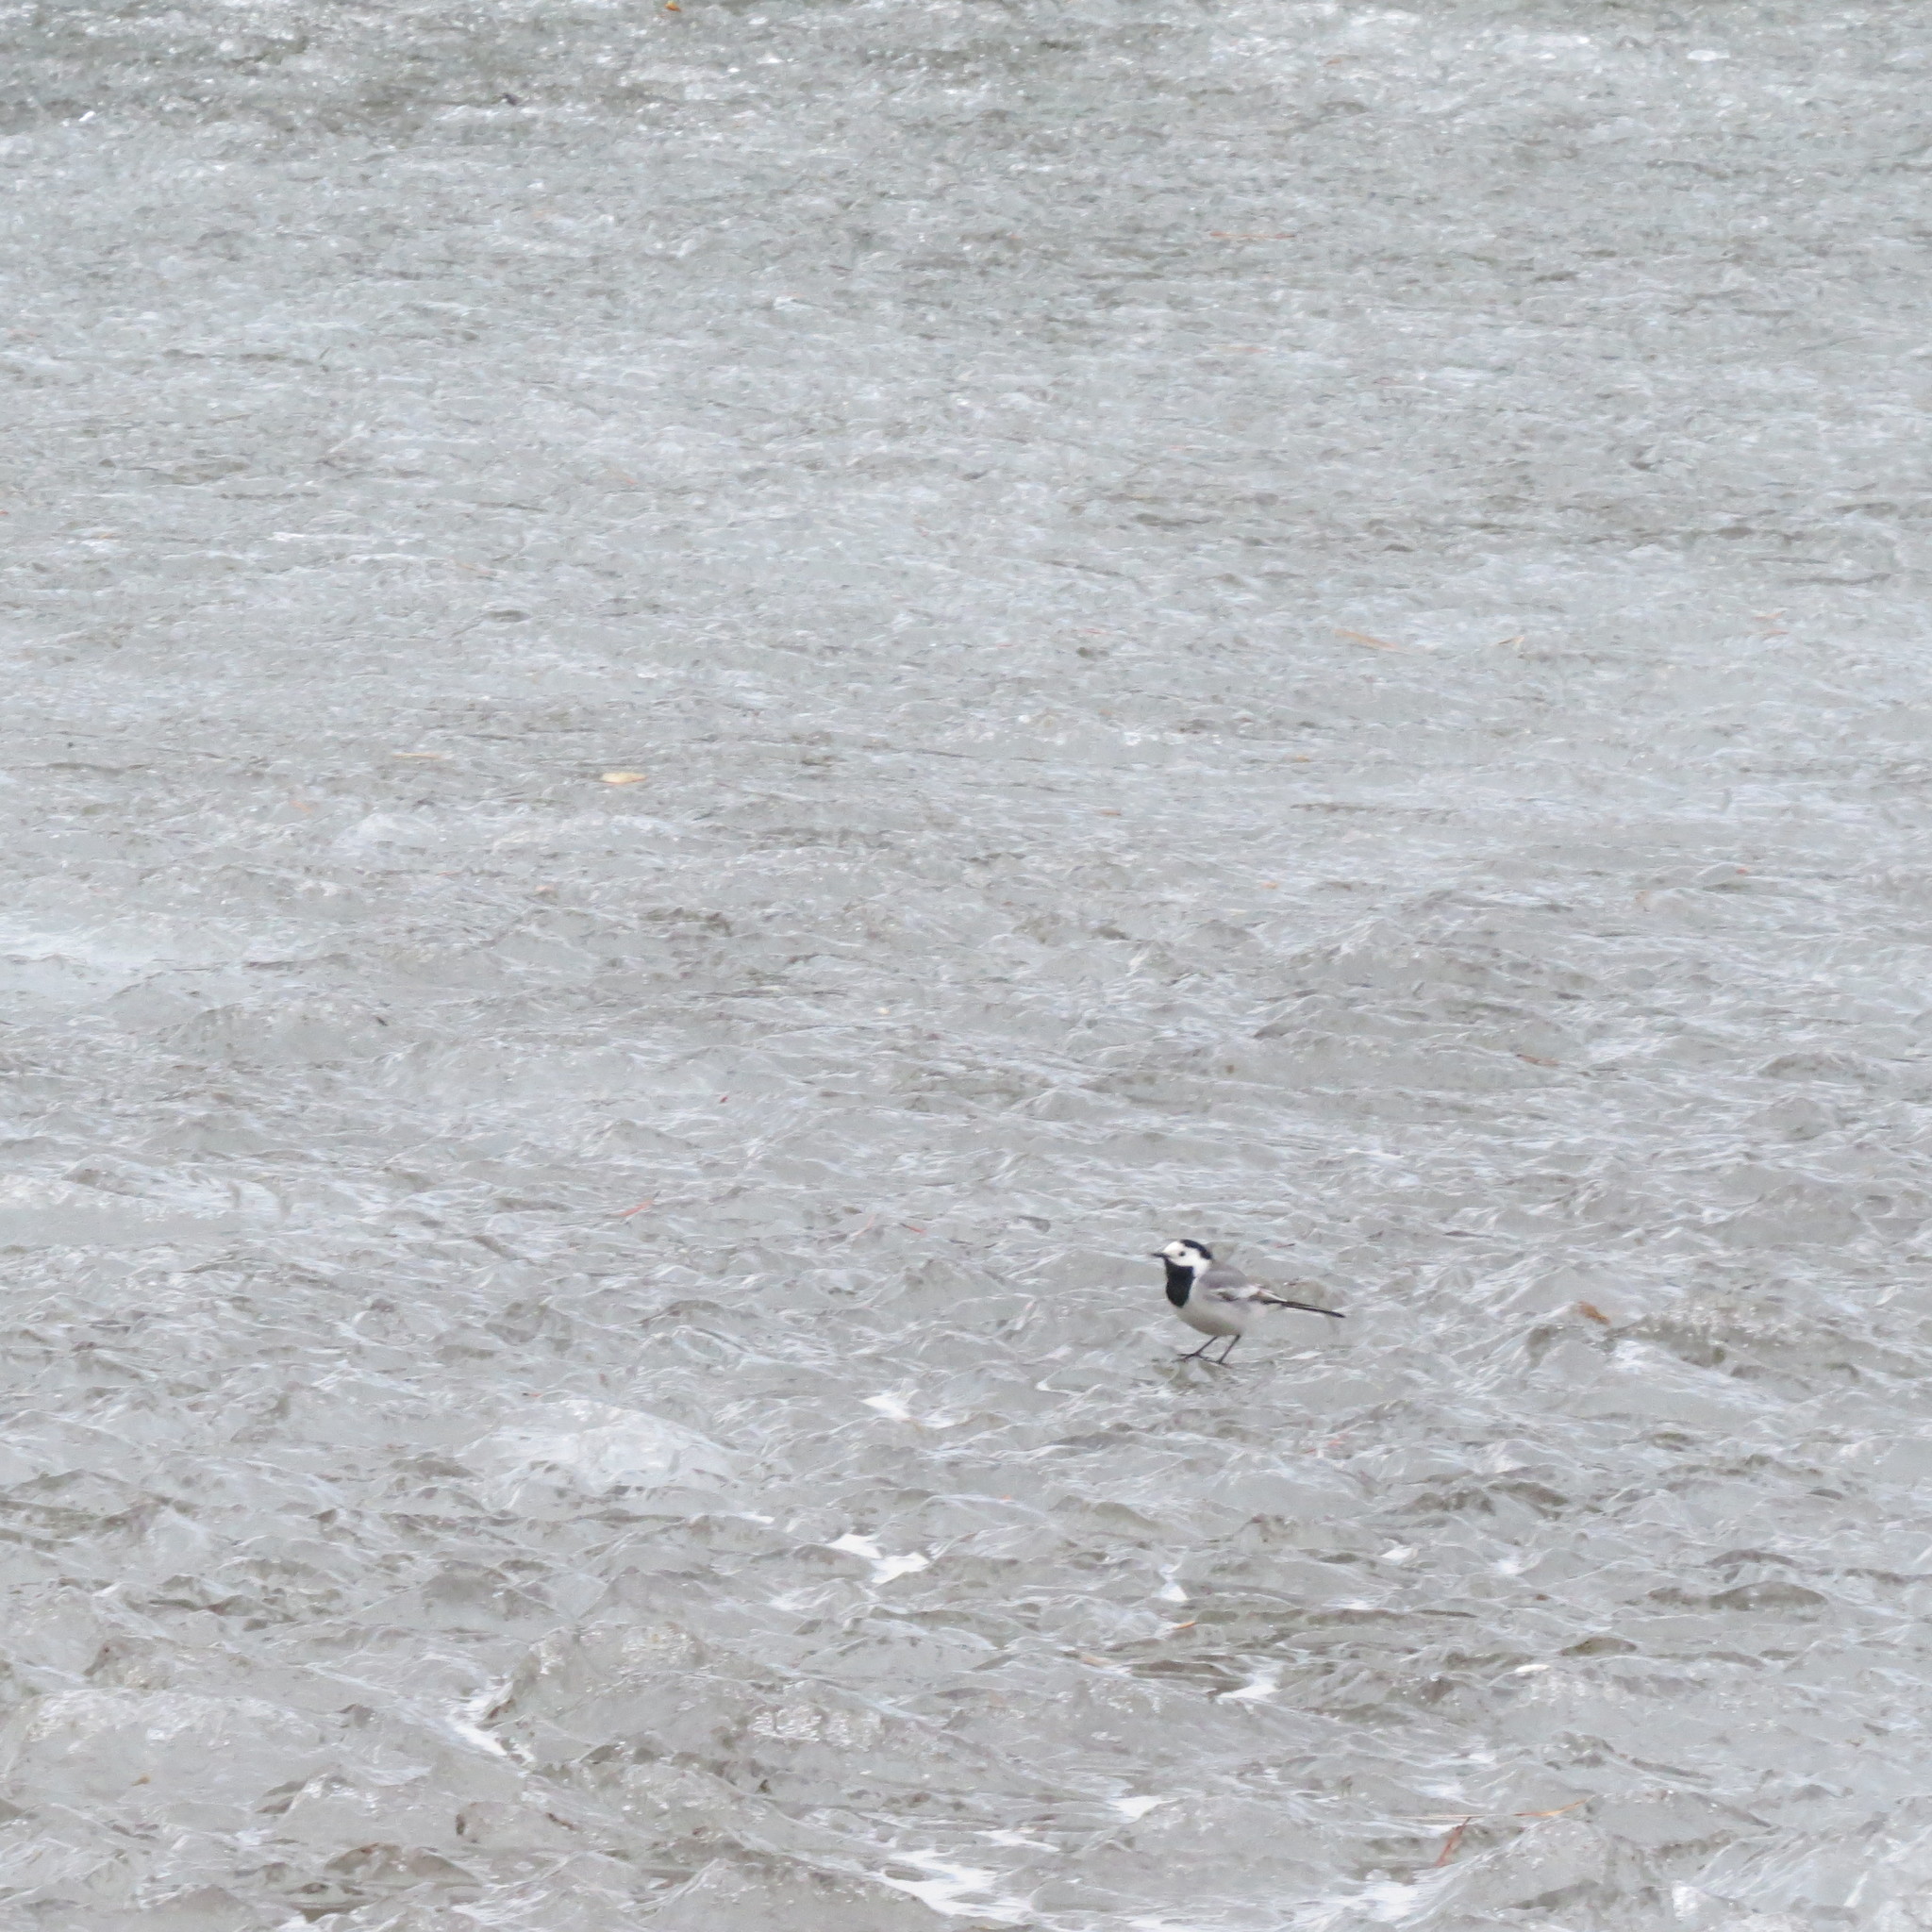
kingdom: Animalia
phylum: Chordata
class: Aves
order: Passeriformes
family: Motacillidae
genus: Motacilla
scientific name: Motacilla alba
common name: White wagtail
